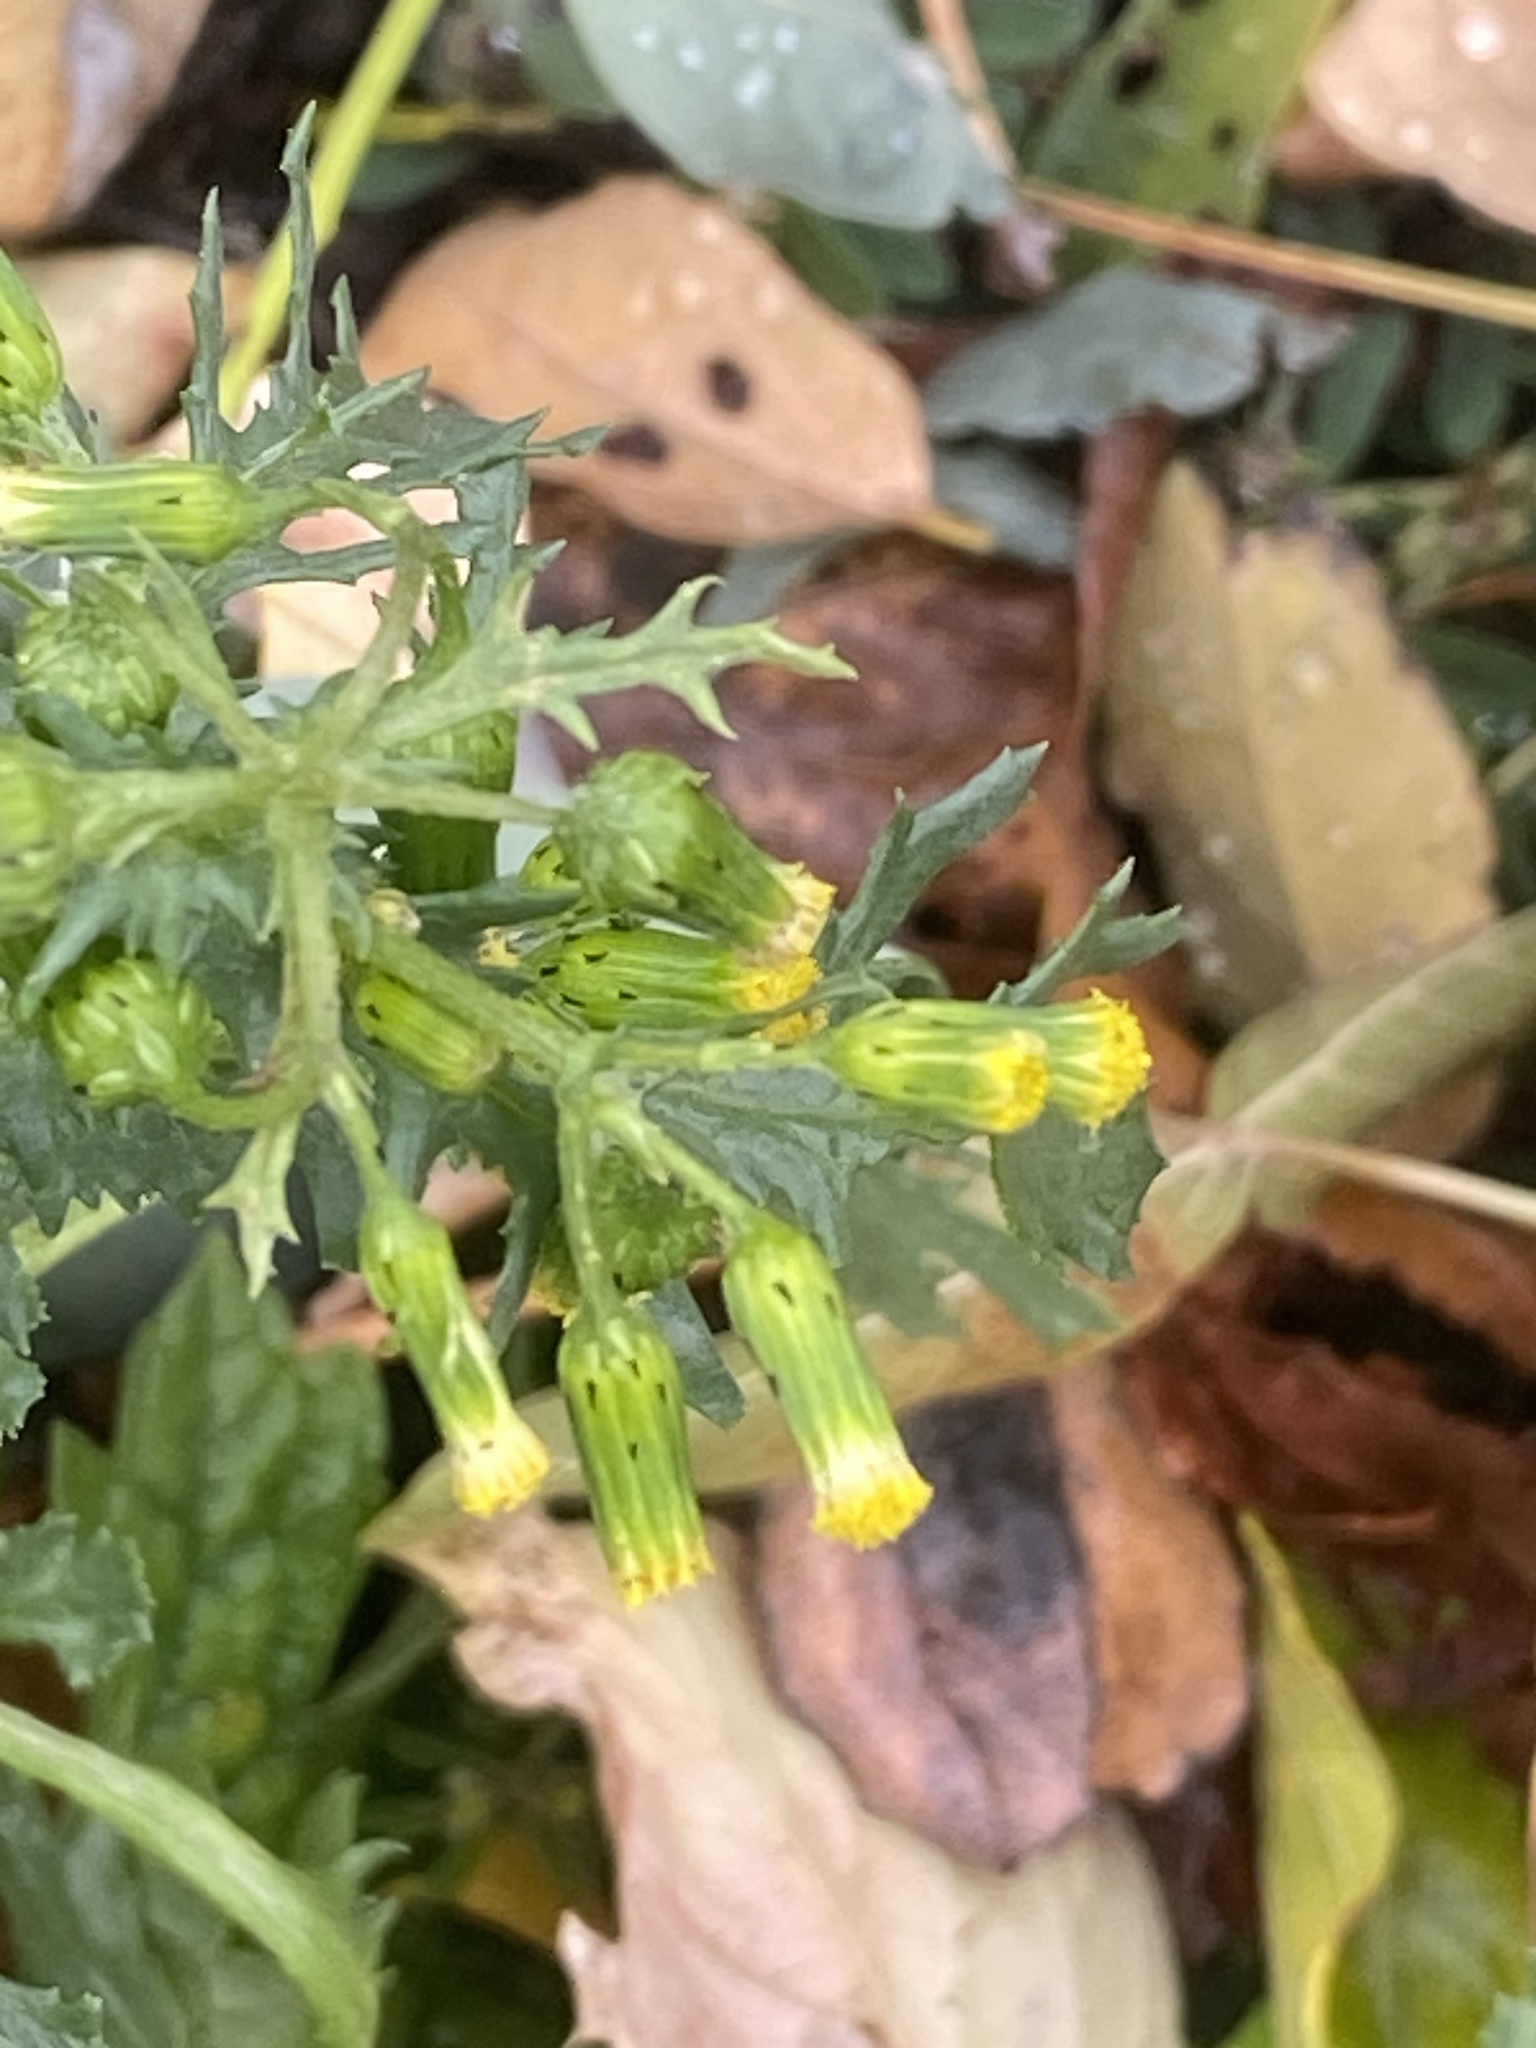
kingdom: Plantae
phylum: Tracheophyta
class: Magnoliopsida
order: Asterales
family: Asteraceae
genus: Senecio
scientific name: Senecio vulgaris
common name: Old-man-in-the-spring
